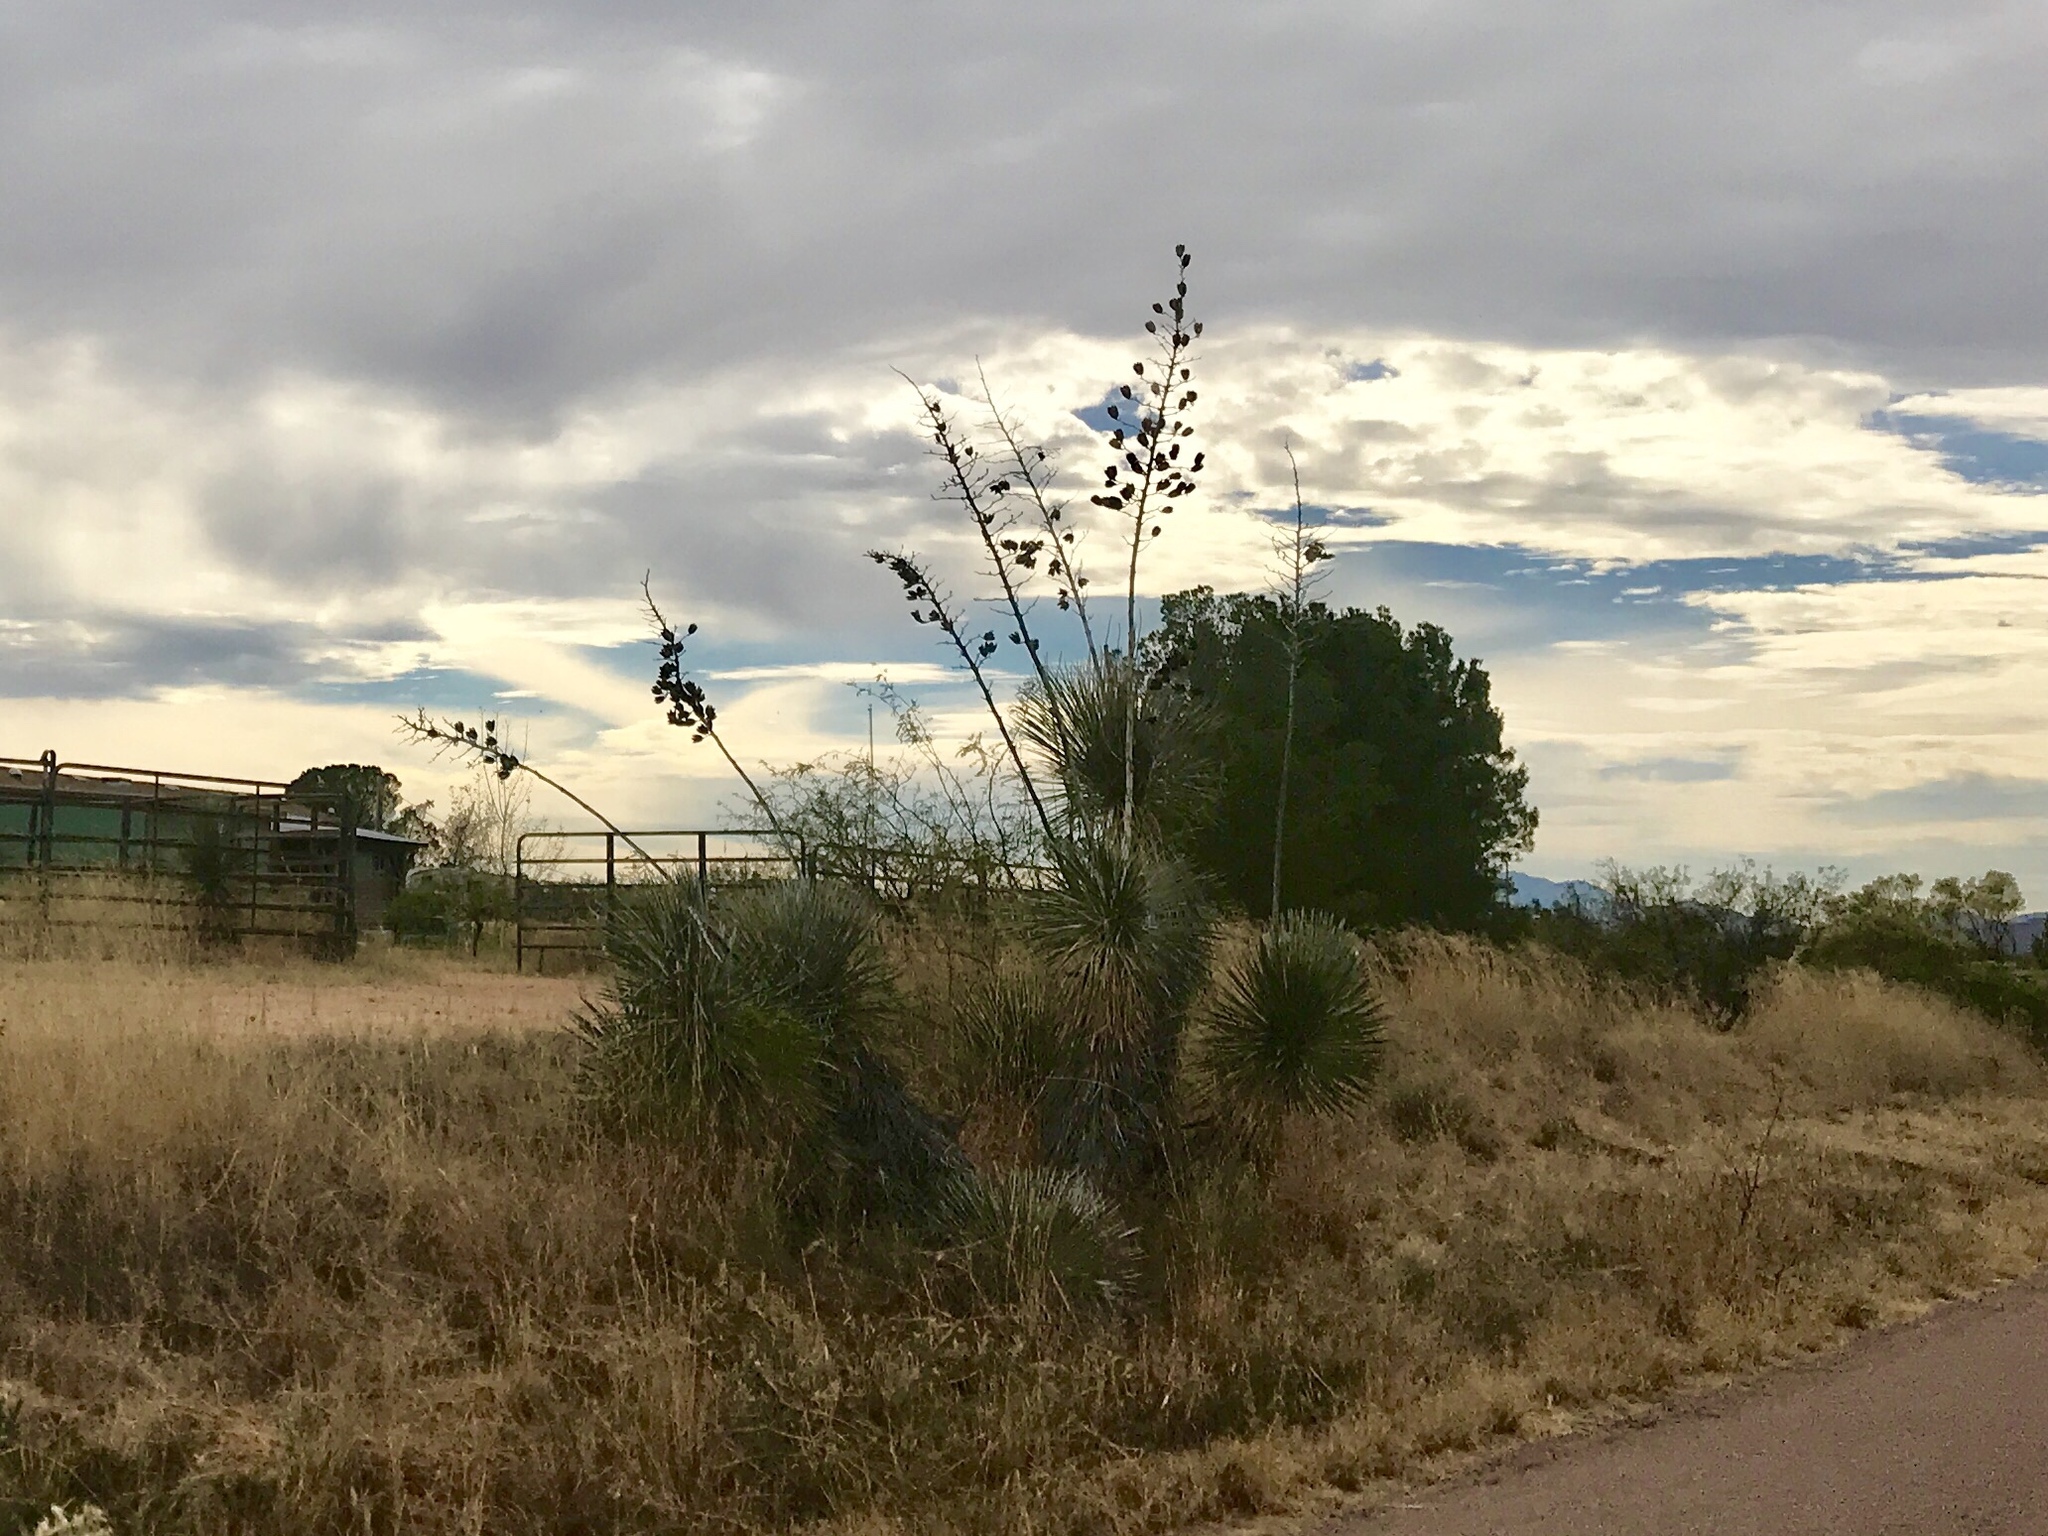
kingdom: Plantae
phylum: Tracheophyta
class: Liliopsida
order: Asparagales
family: Asparagaceae
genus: Yucca
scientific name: Yucca elata
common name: Palmella
